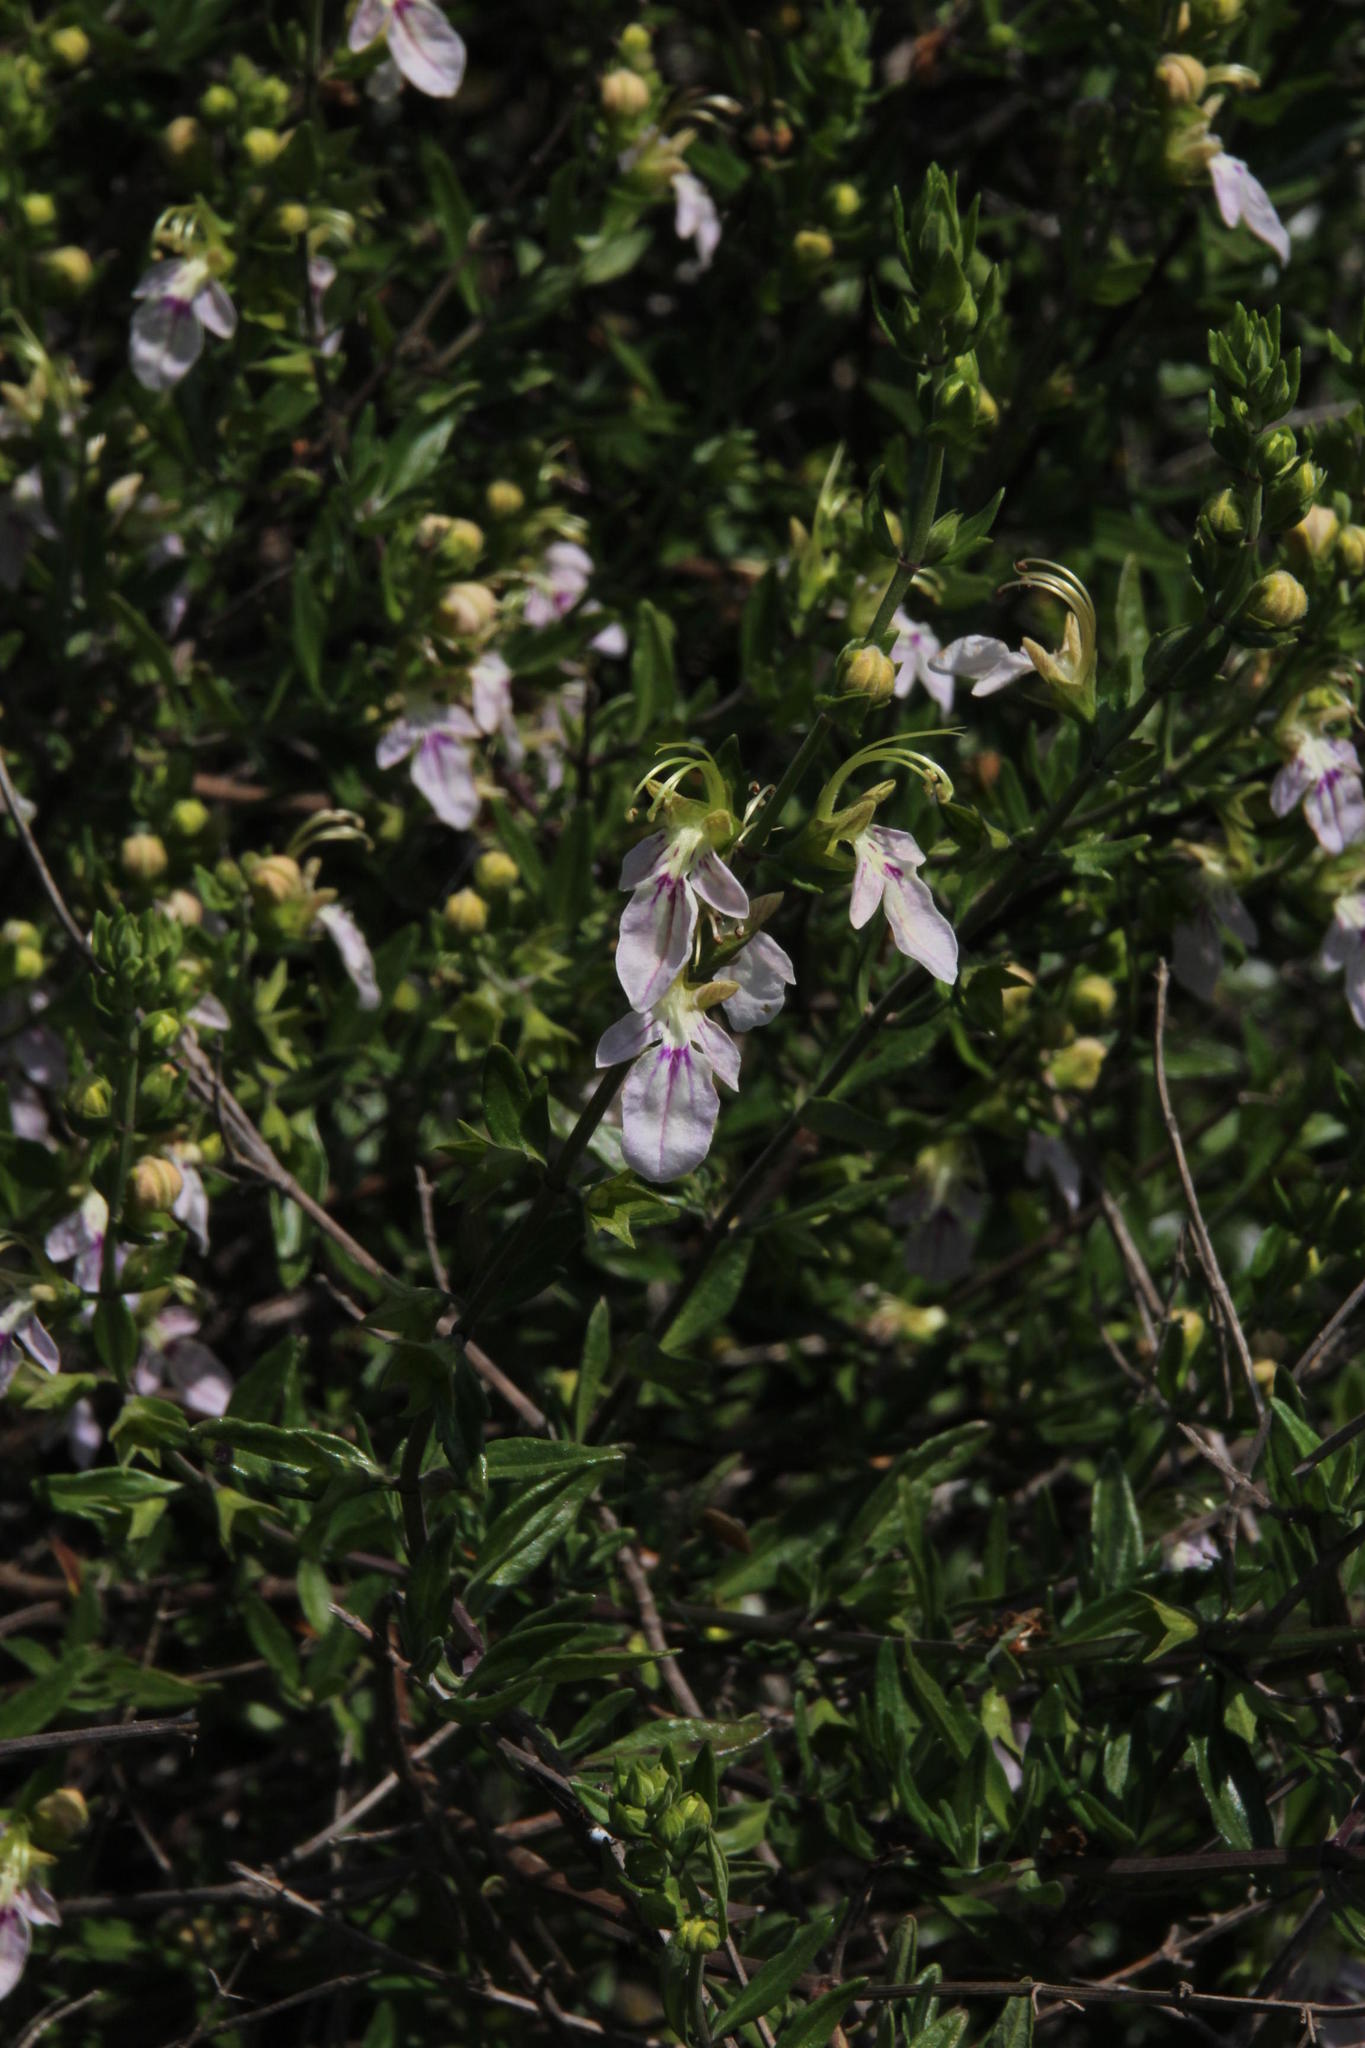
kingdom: Plantae
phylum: Tracheophyta
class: Magnoliopsida
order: Lamiales
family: Lamiaceae
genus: Teucrium
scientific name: Teucrium bicolor
